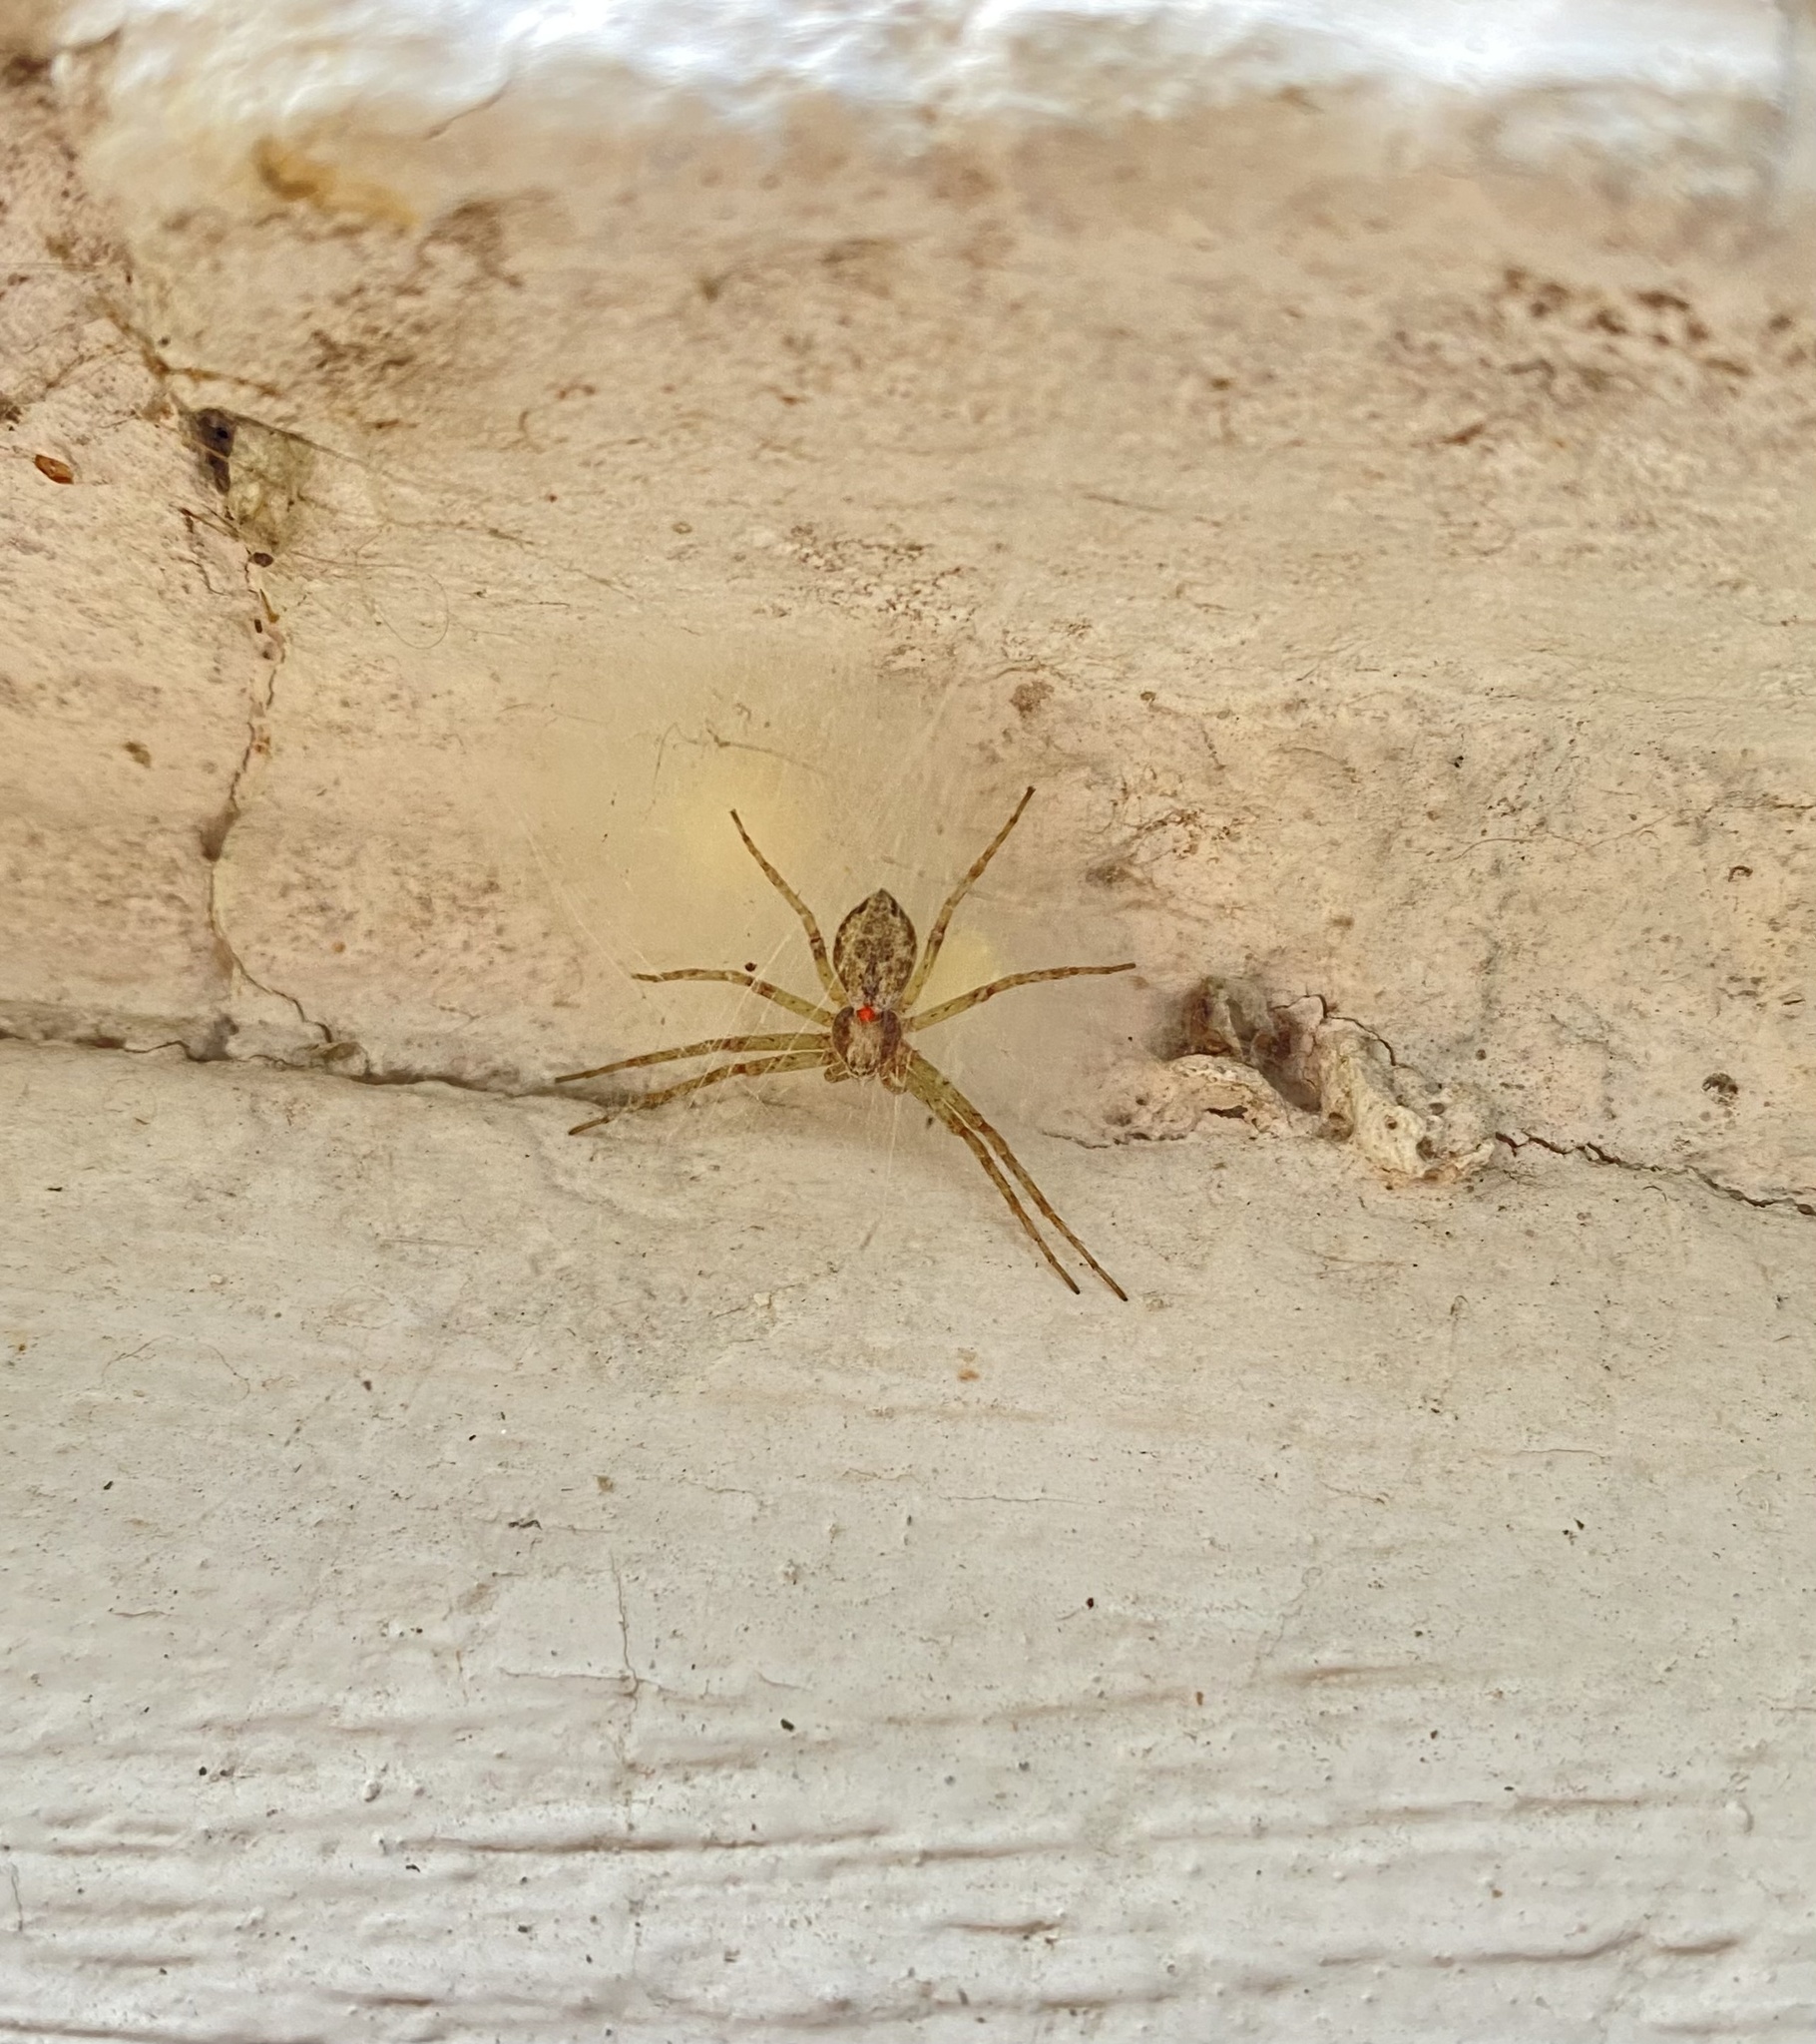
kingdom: Animalia
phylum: Arthropoda
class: Arachnida
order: Araneae
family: Philodromidae
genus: Philodromus
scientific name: Philodromus
